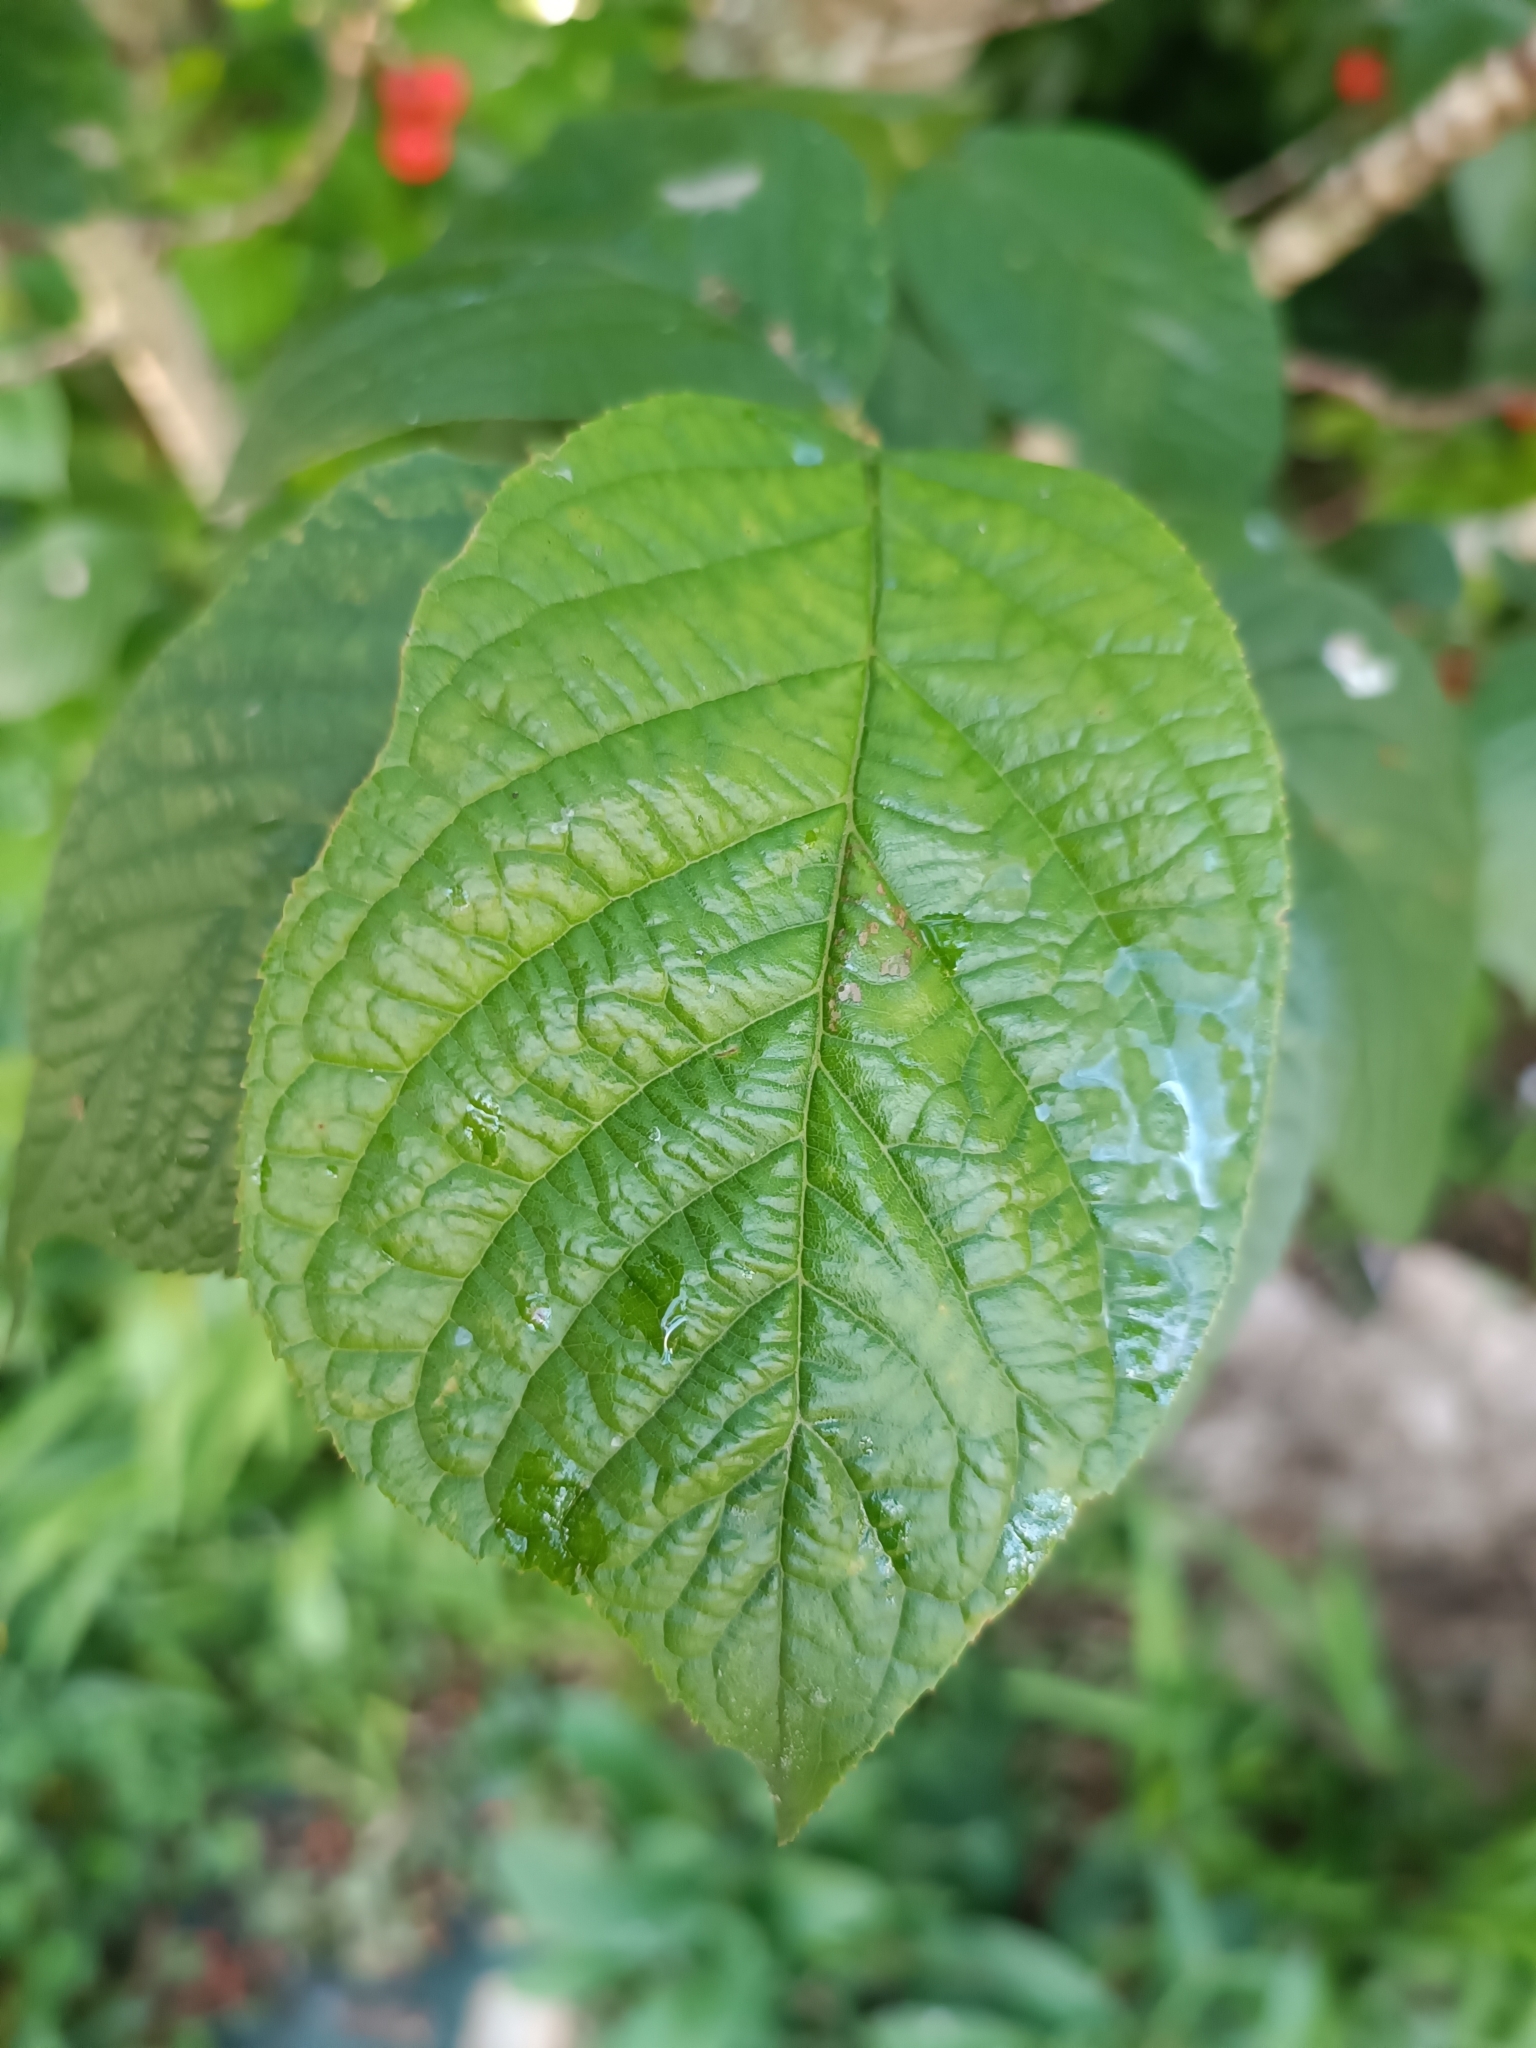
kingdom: Plantae
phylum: Tracheophyta
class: Magnoliopsida
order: Rosales
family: Rosaceae
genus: Prunus
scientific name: Prunus campanulata
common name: Taiwan flowering cherry
